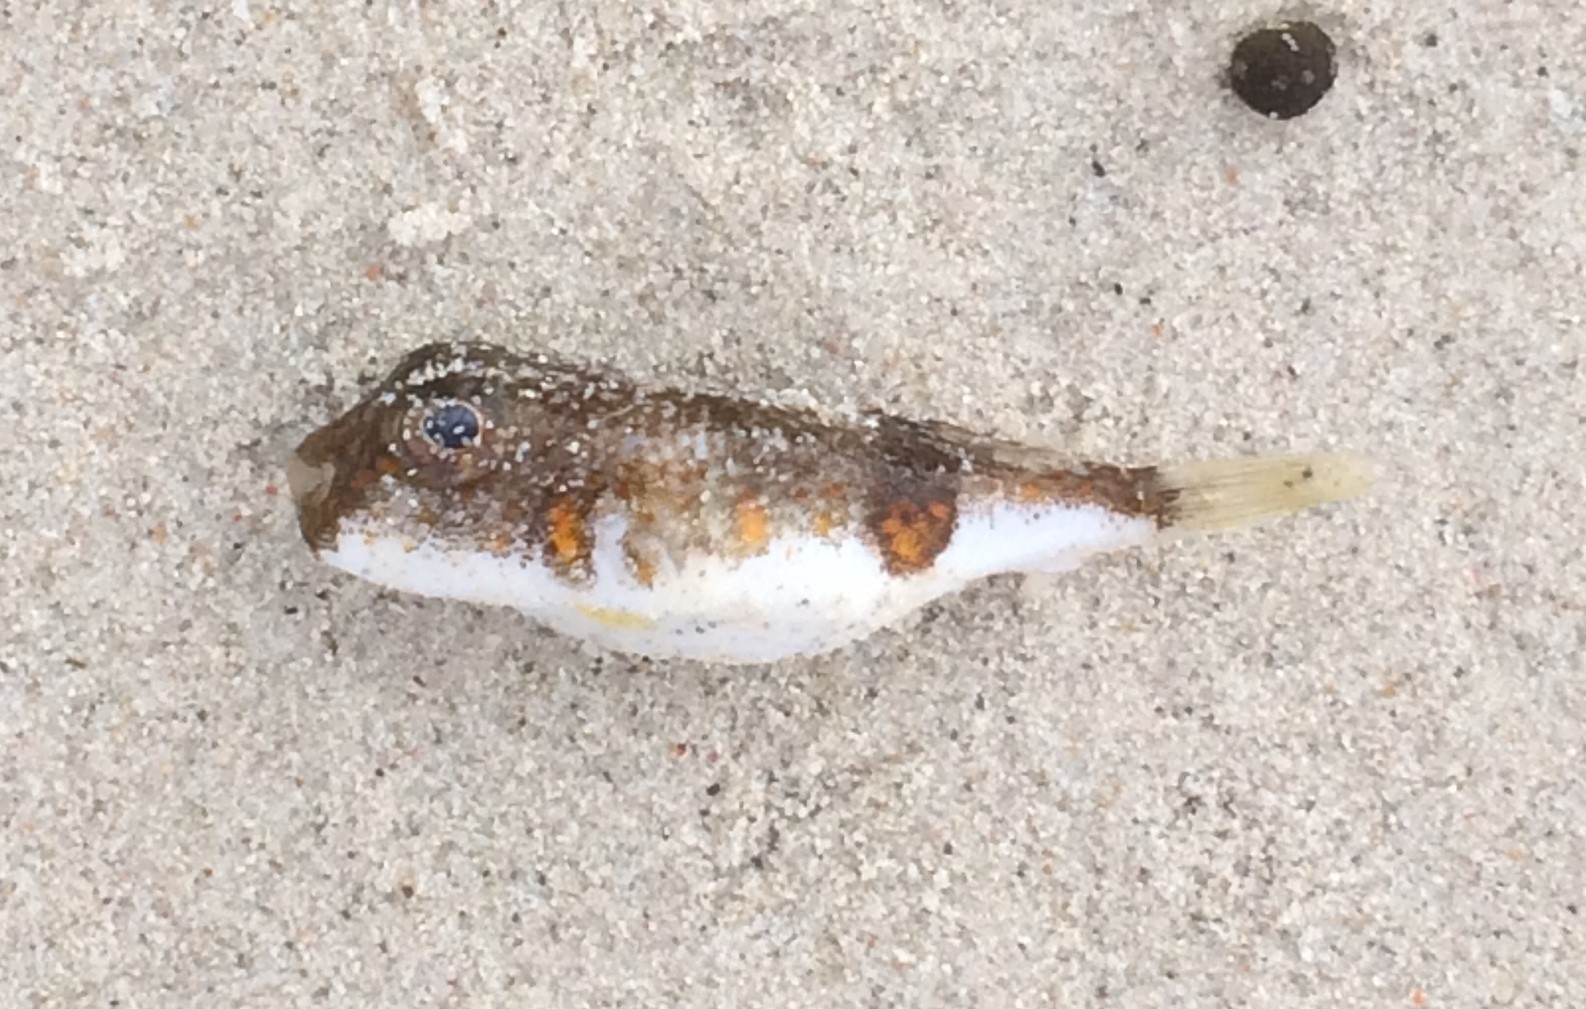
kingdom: Animalia
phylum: Chordata
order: Tetraodontiformes
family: Tetraodontidae
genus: Polyspina
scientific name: Polyspina piosae
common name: Orange-barred pufferfish
